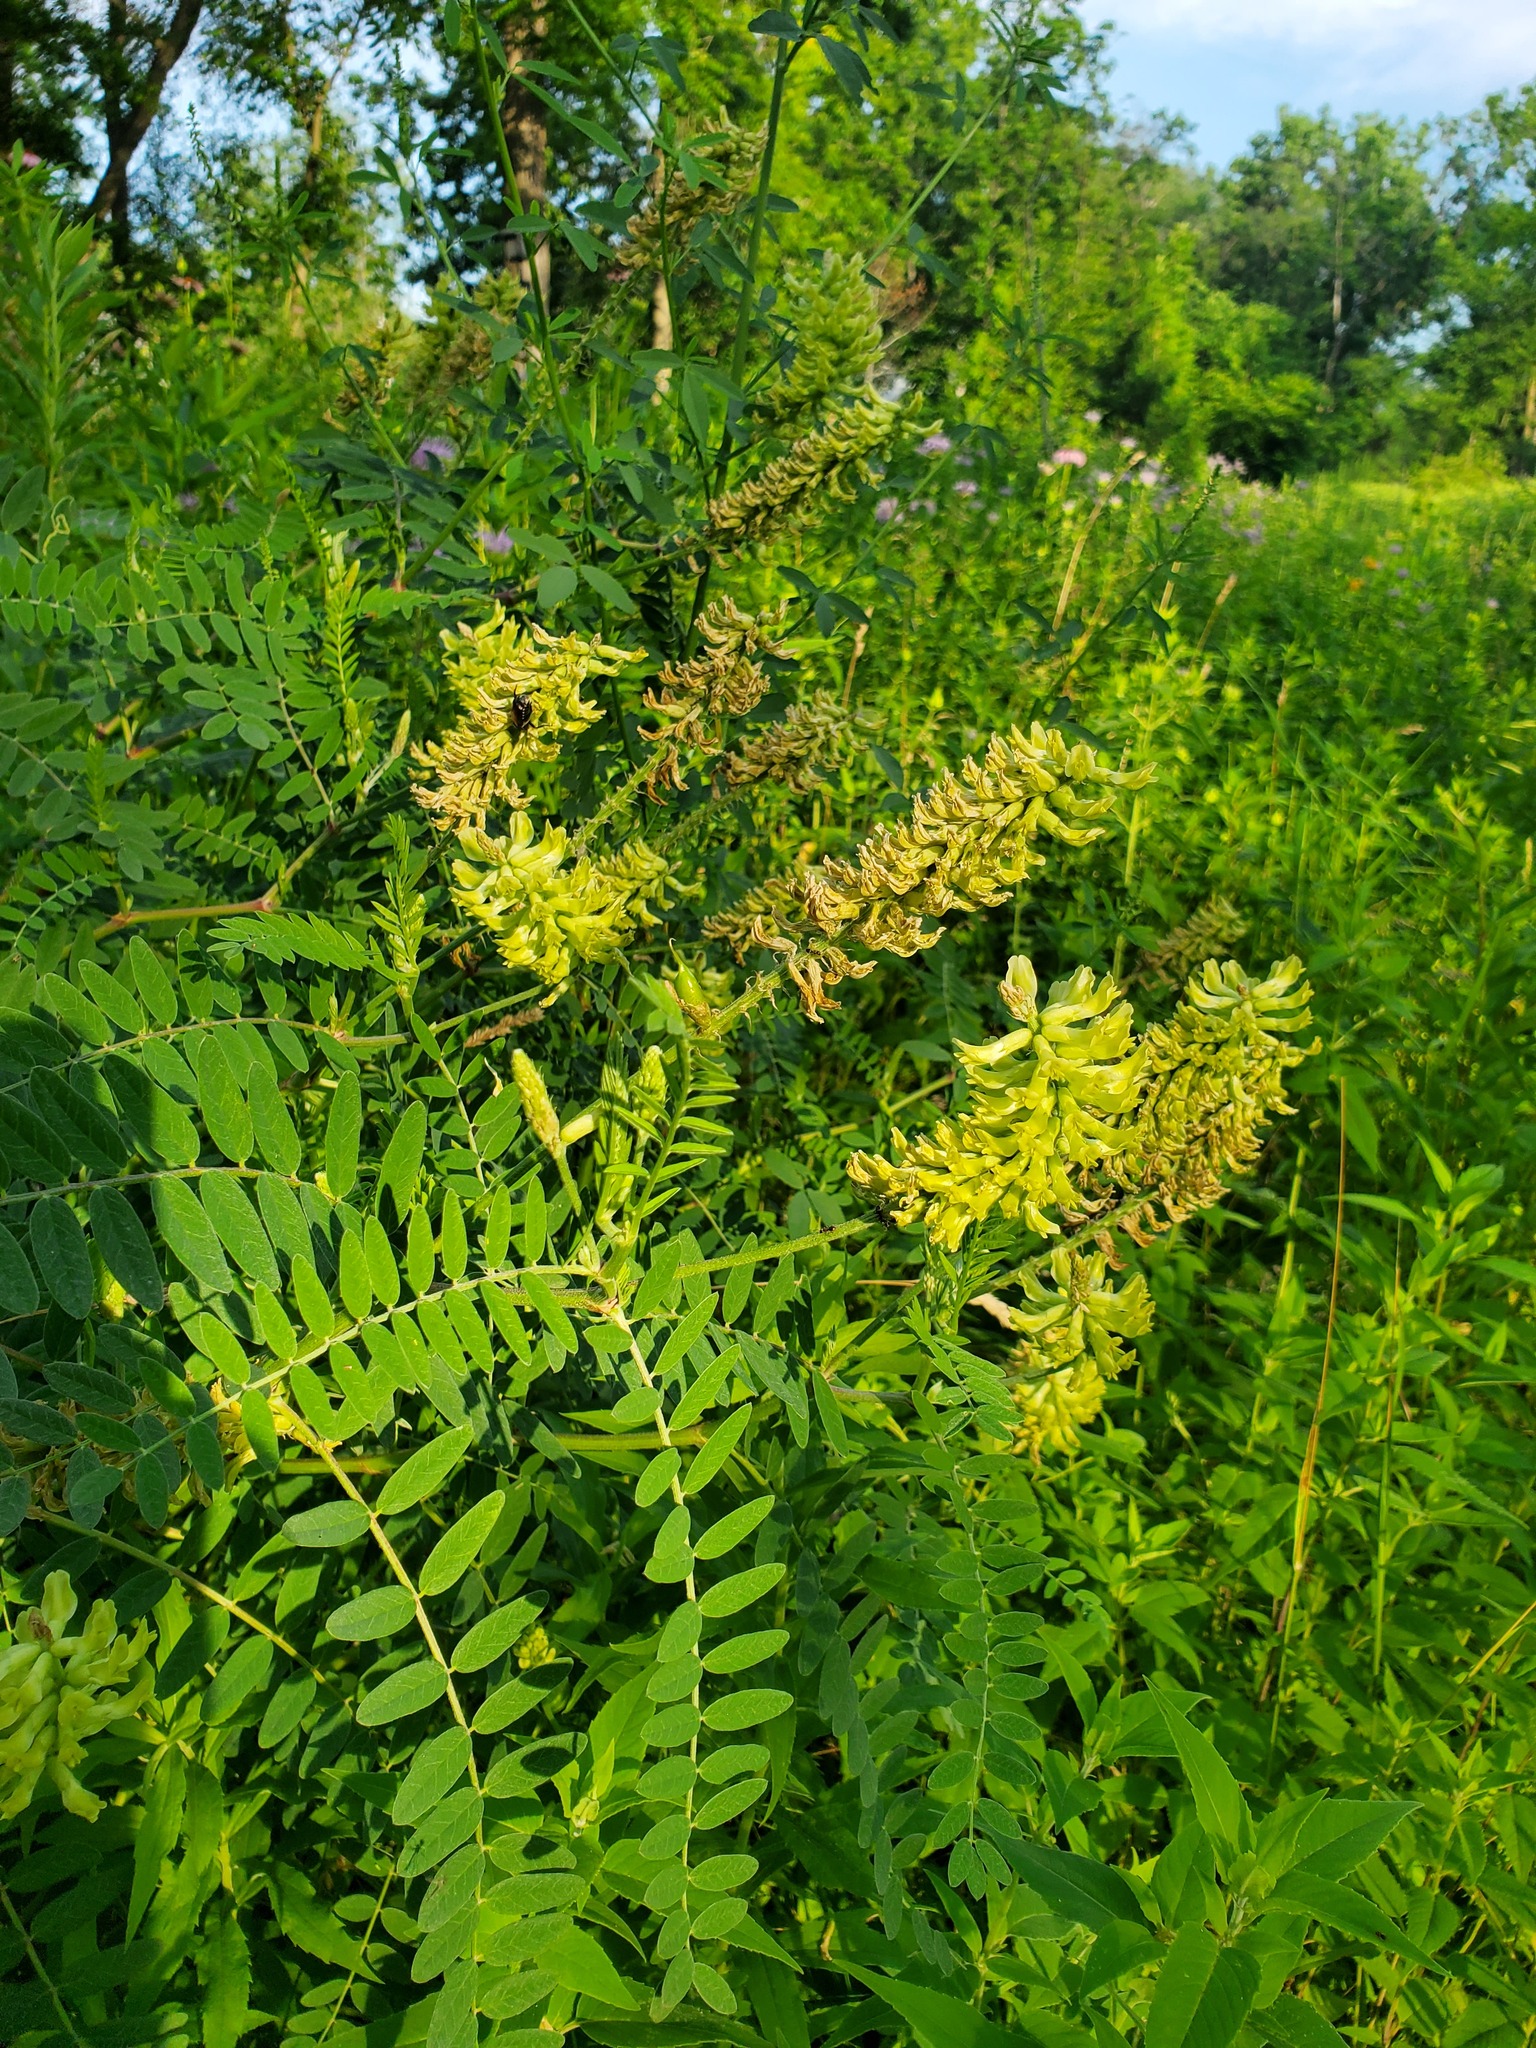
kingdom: Plantae
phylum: Tracheophyta
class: Magnoliopsida
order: Fabales
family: Fabaceae
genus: Astragalus
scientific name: Astragalus canadensis
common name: Canada milk-vetch
